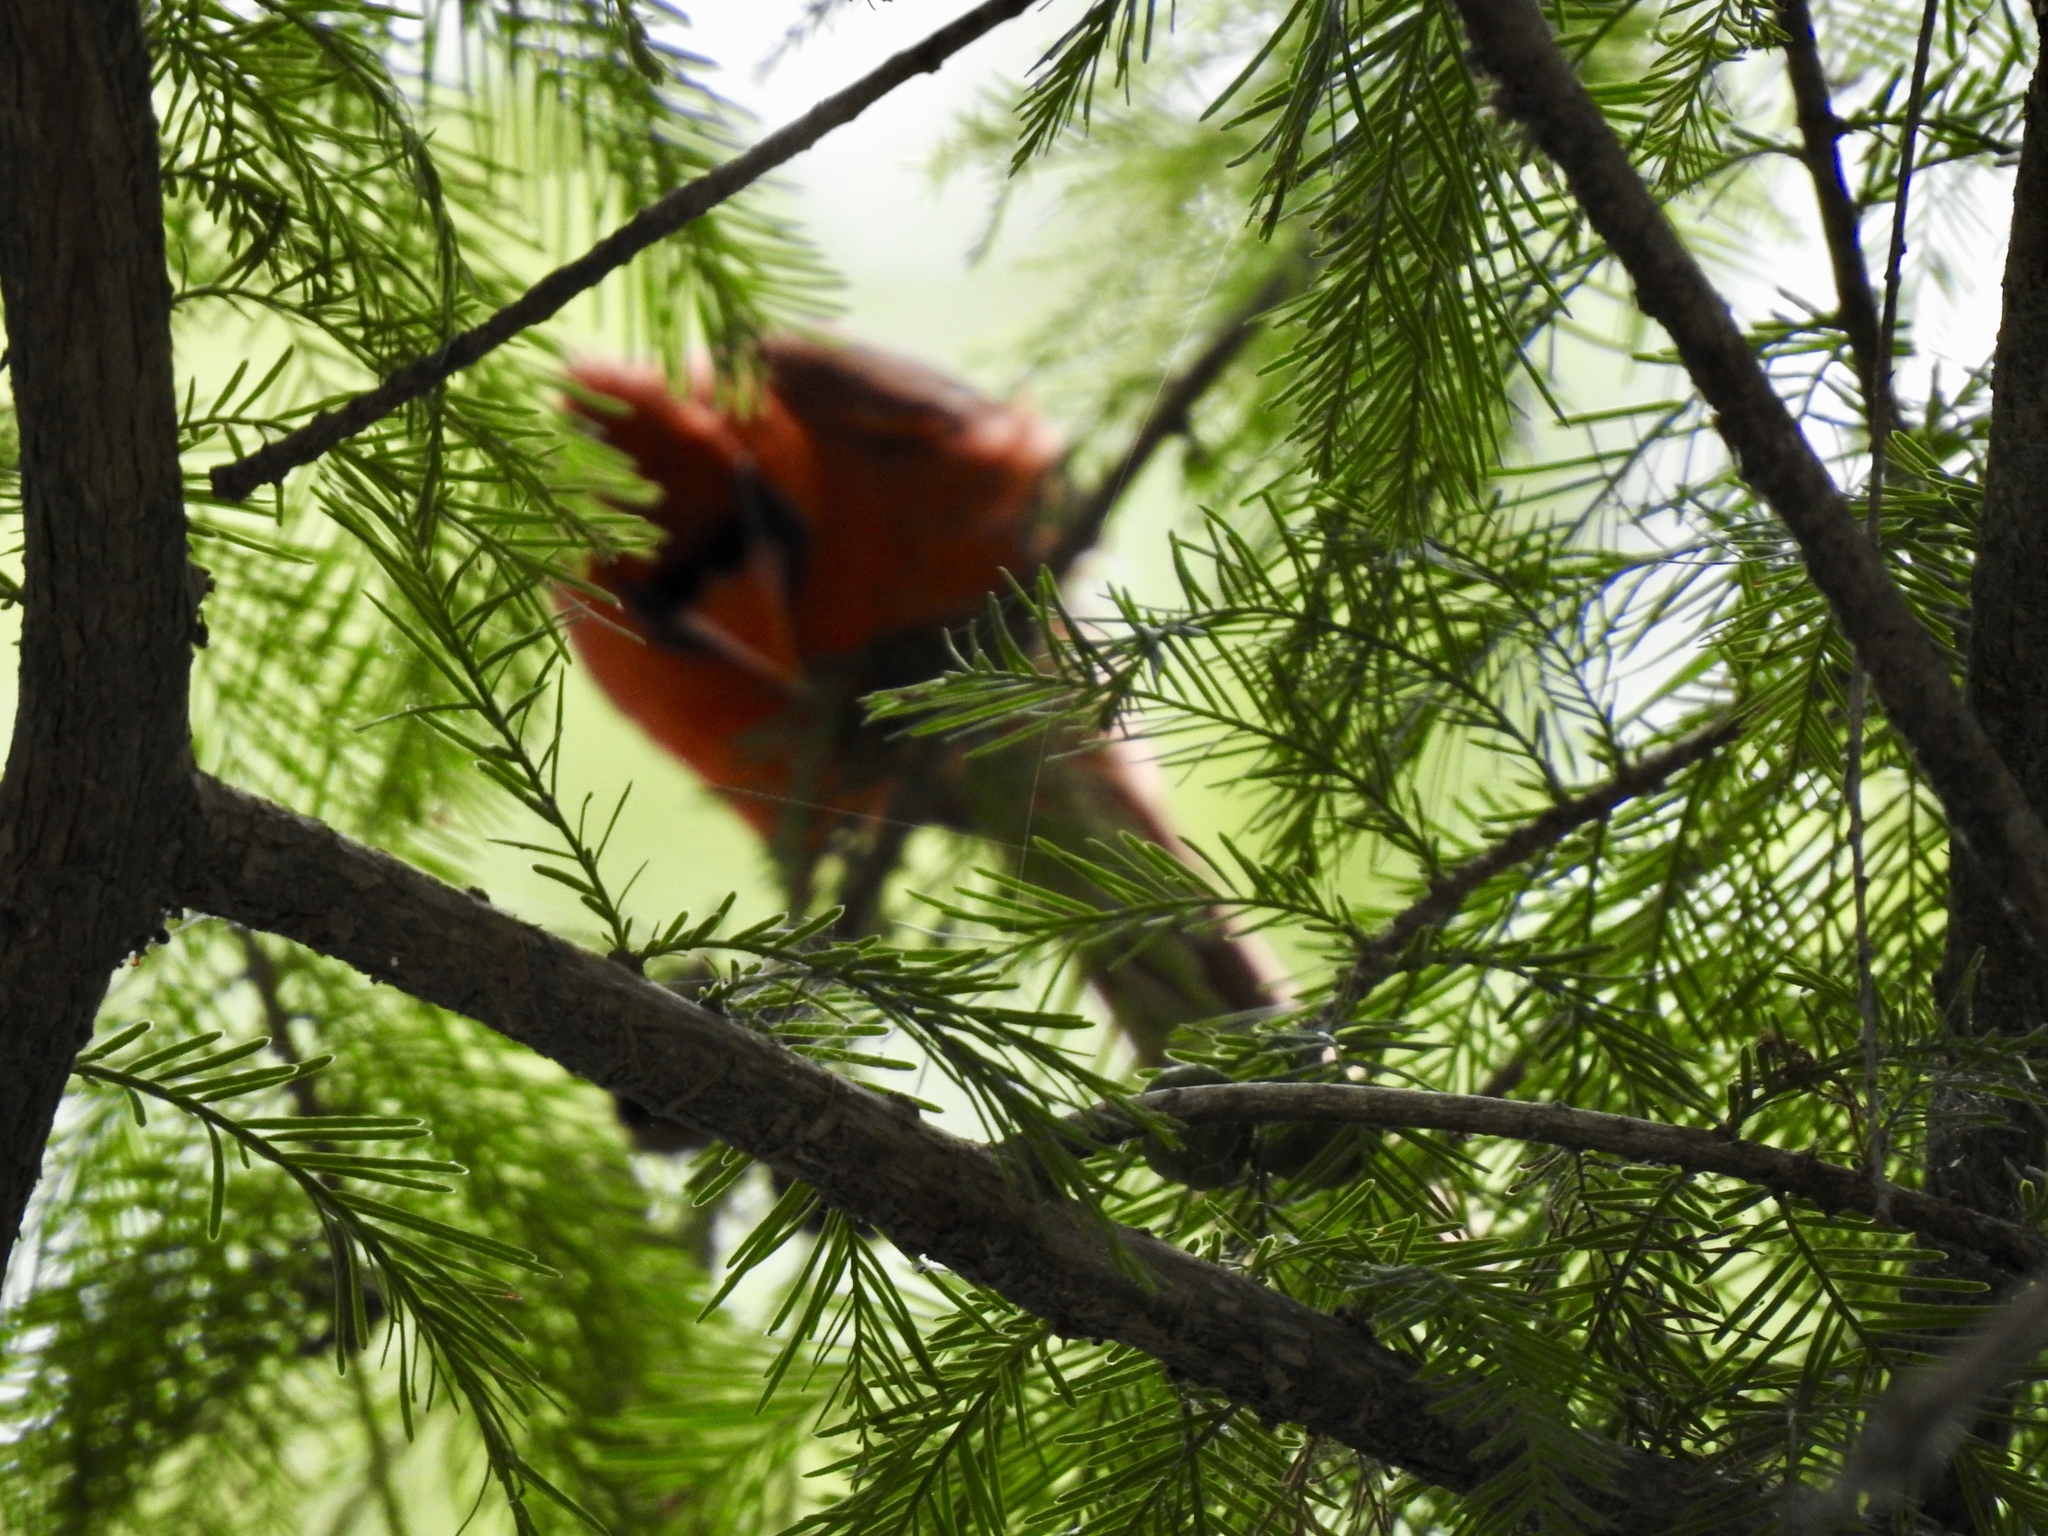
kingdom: Animalia
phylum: Chordata
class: Aves
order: Passeriformes
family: Cardinalidae
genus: Cardinalis
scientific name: Cardinalis cardinalis
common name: Northern cardinal
